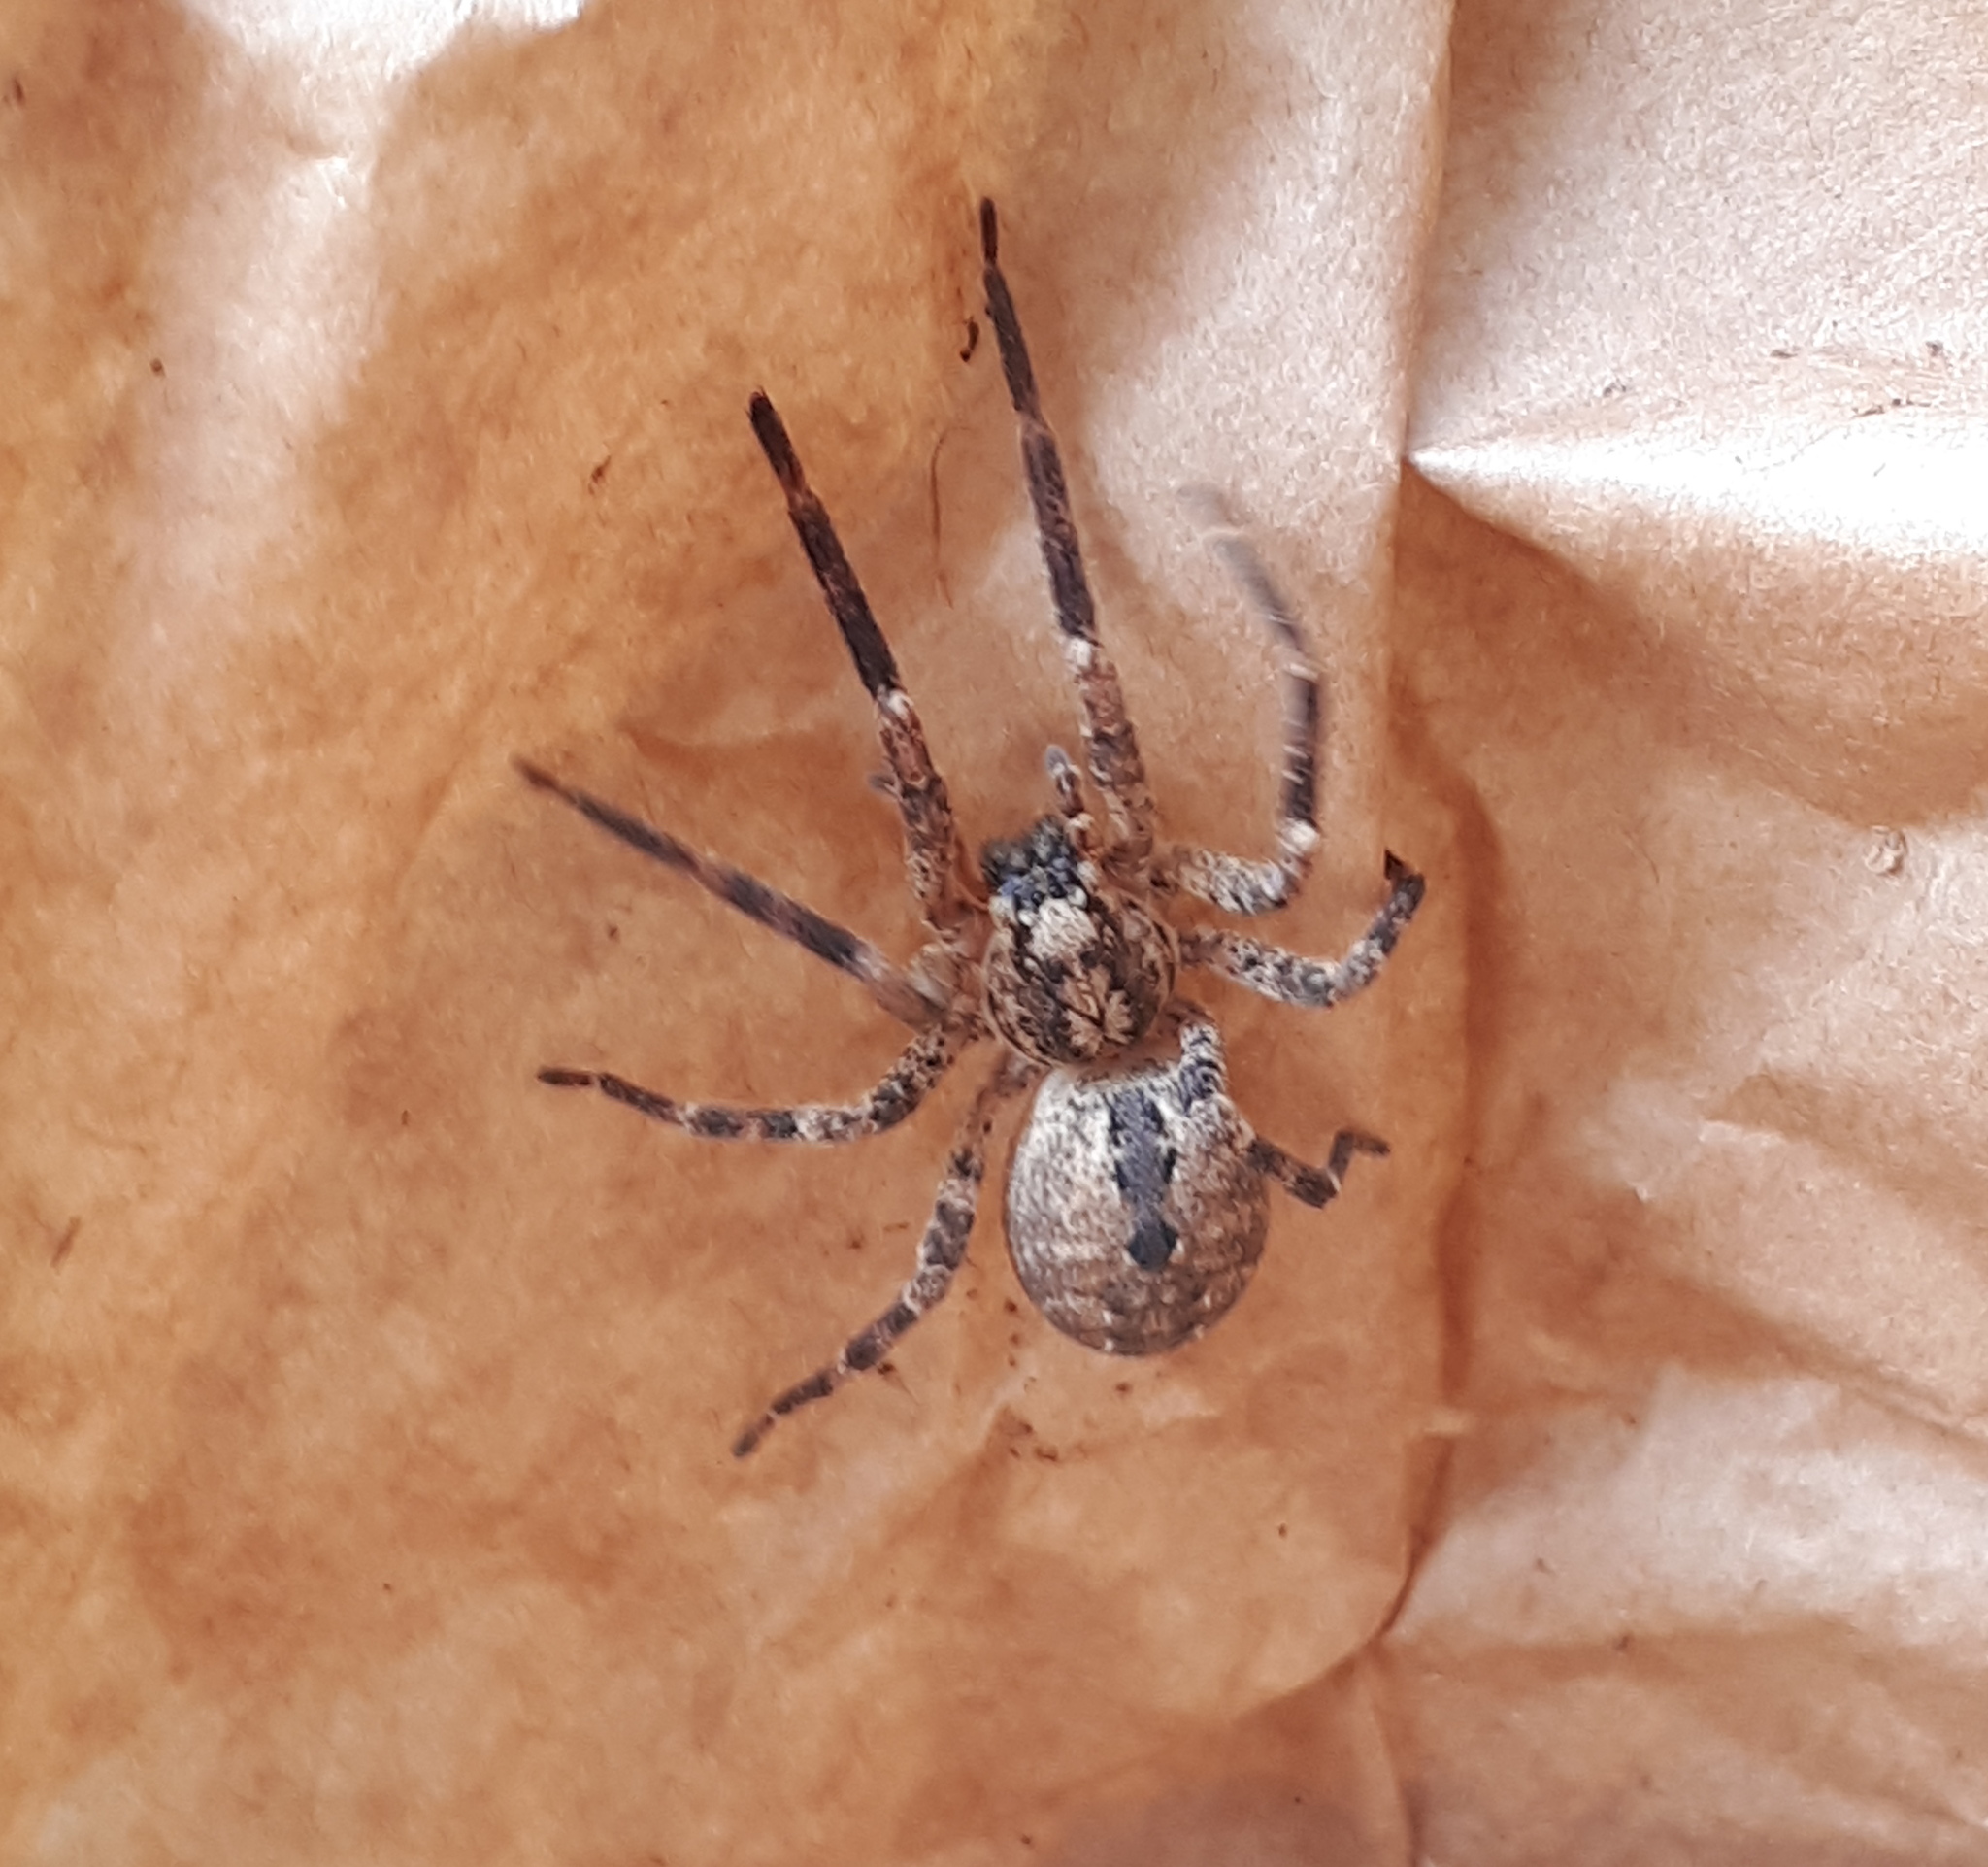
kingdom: Animalia
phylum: Arthropoda
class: Arachnida
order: Araneae
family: Zoropsidae
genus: Zoropsis
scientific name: Zoropsis spinimana
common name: Zoropsid spider
